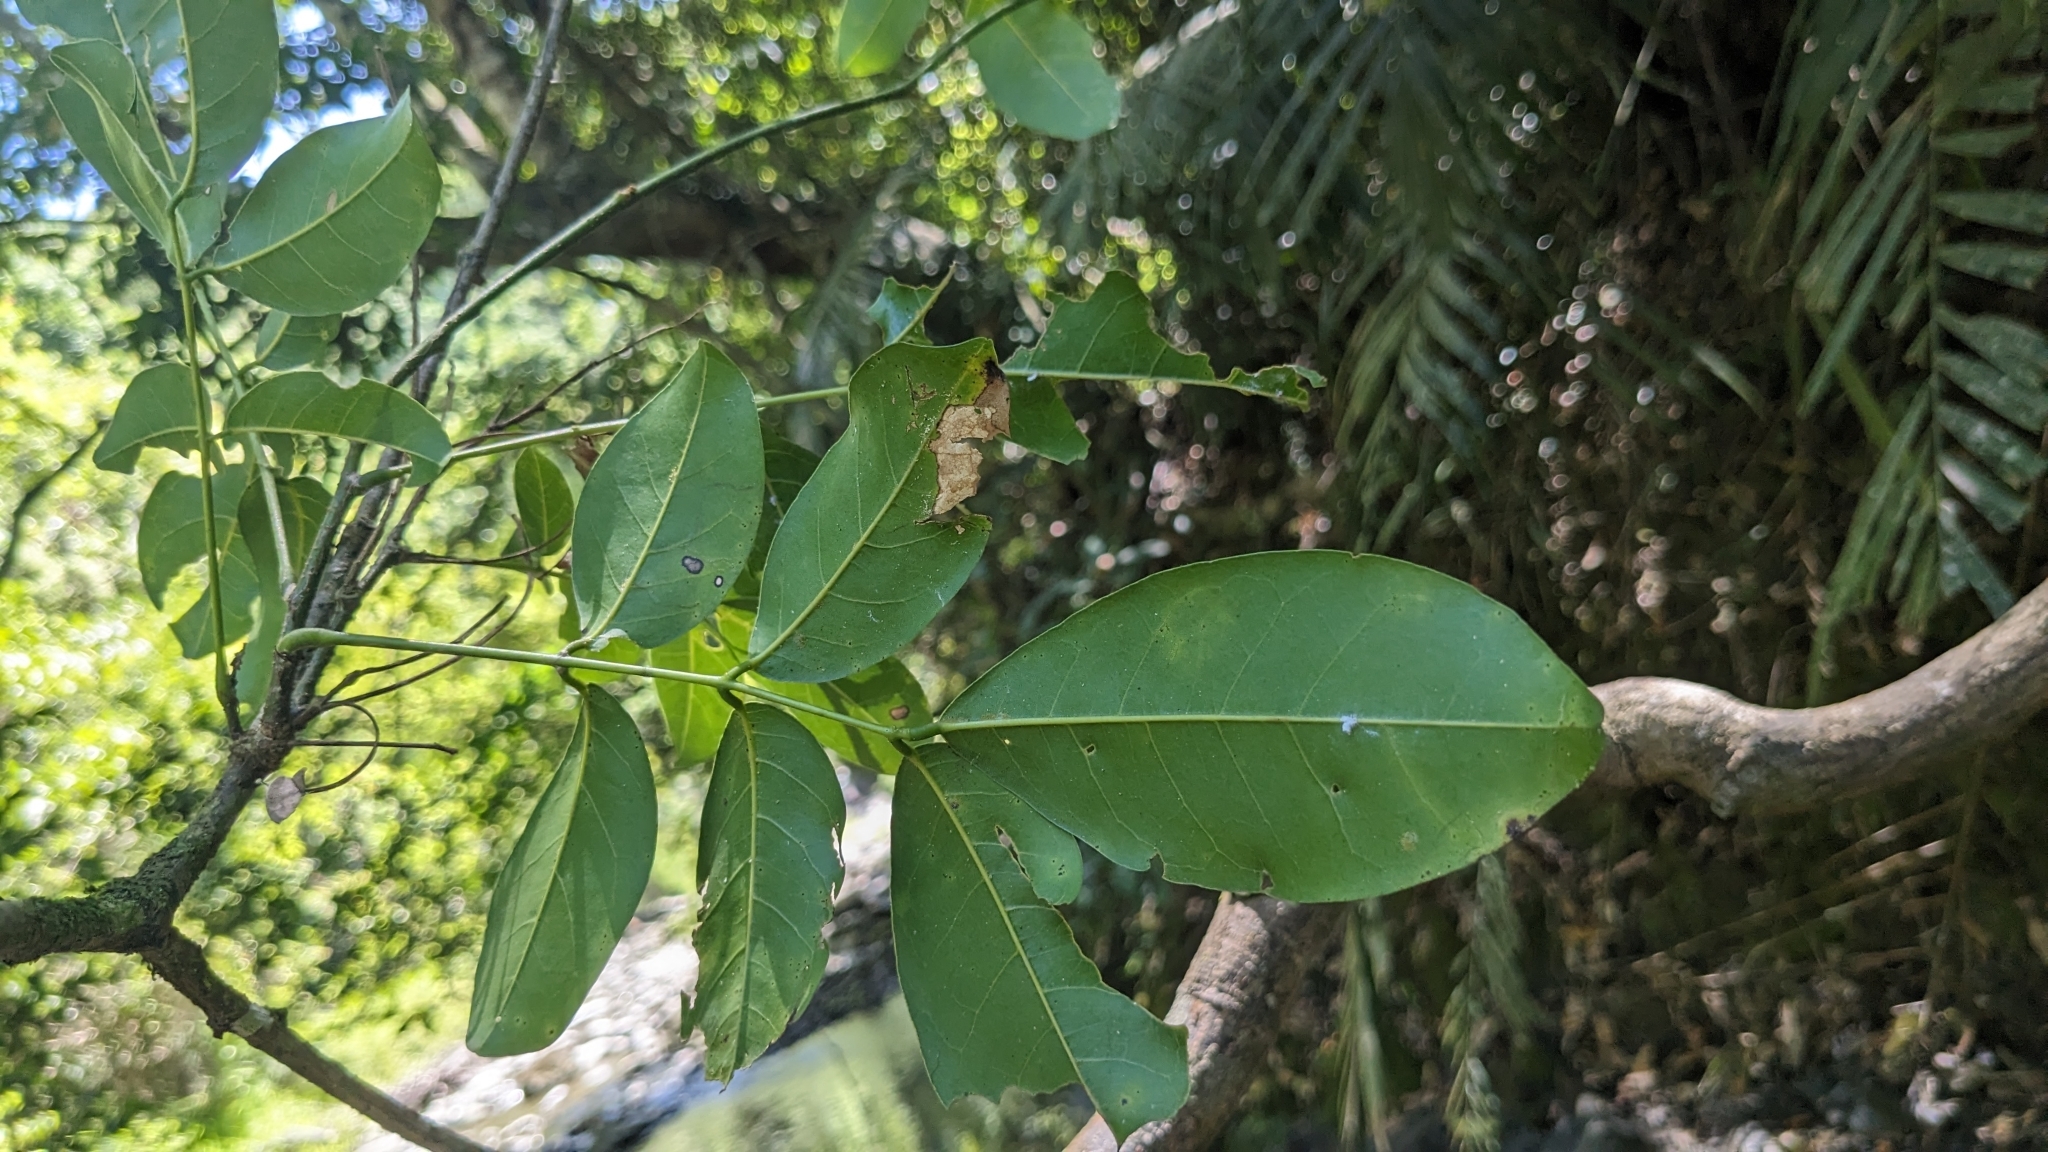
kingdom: Plantae
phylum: Tracheophyta
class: Magnoliopsida
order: Fabales
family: Fabaceae
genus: Wisteriopsis
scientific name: Wisteriopsis reticulata
